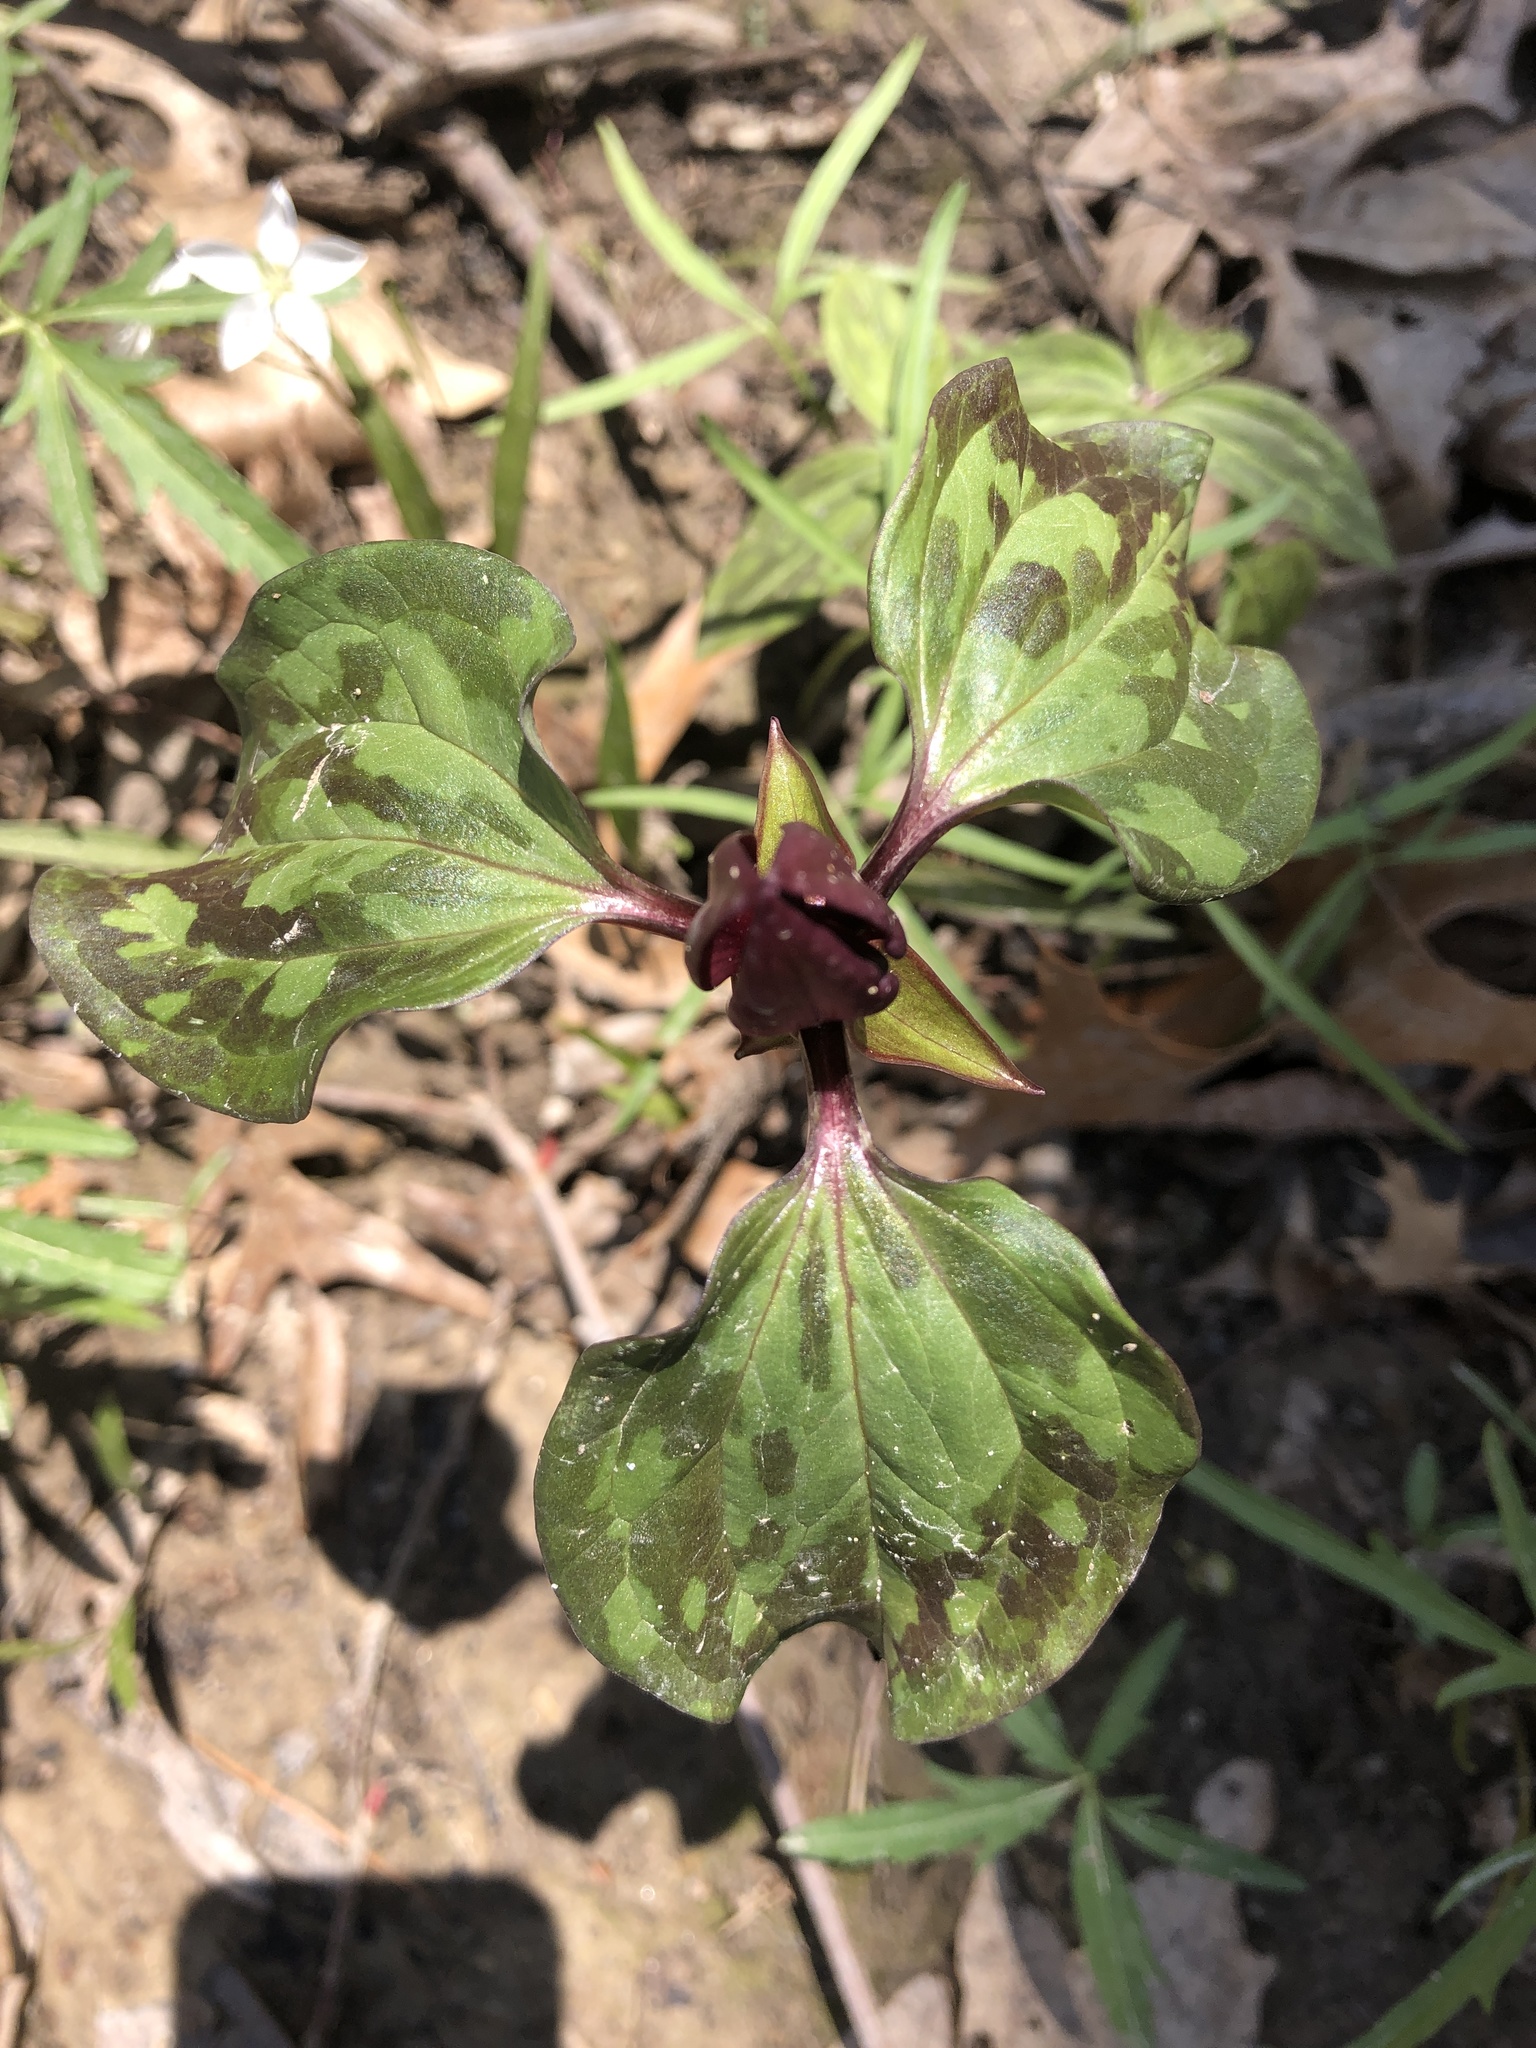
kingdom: Plantae
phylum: Tracheophyta
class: Liliopsida
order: Liliales
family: Melanthiaceae
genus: Trillium
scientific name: Trillium recurvatum
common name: Bloody butcher
